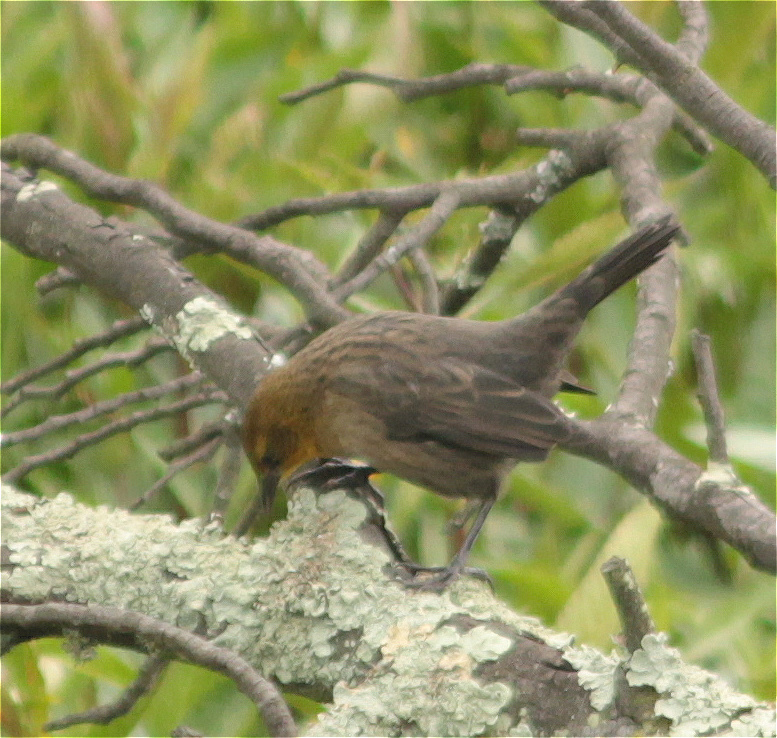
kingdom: Animalia
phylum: Chordata
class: Aves
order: Passeriformes
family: Icteridae
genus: Chrysomus
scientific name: Chrysomus icterocephalus
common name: Yellow-hooded blackbird
